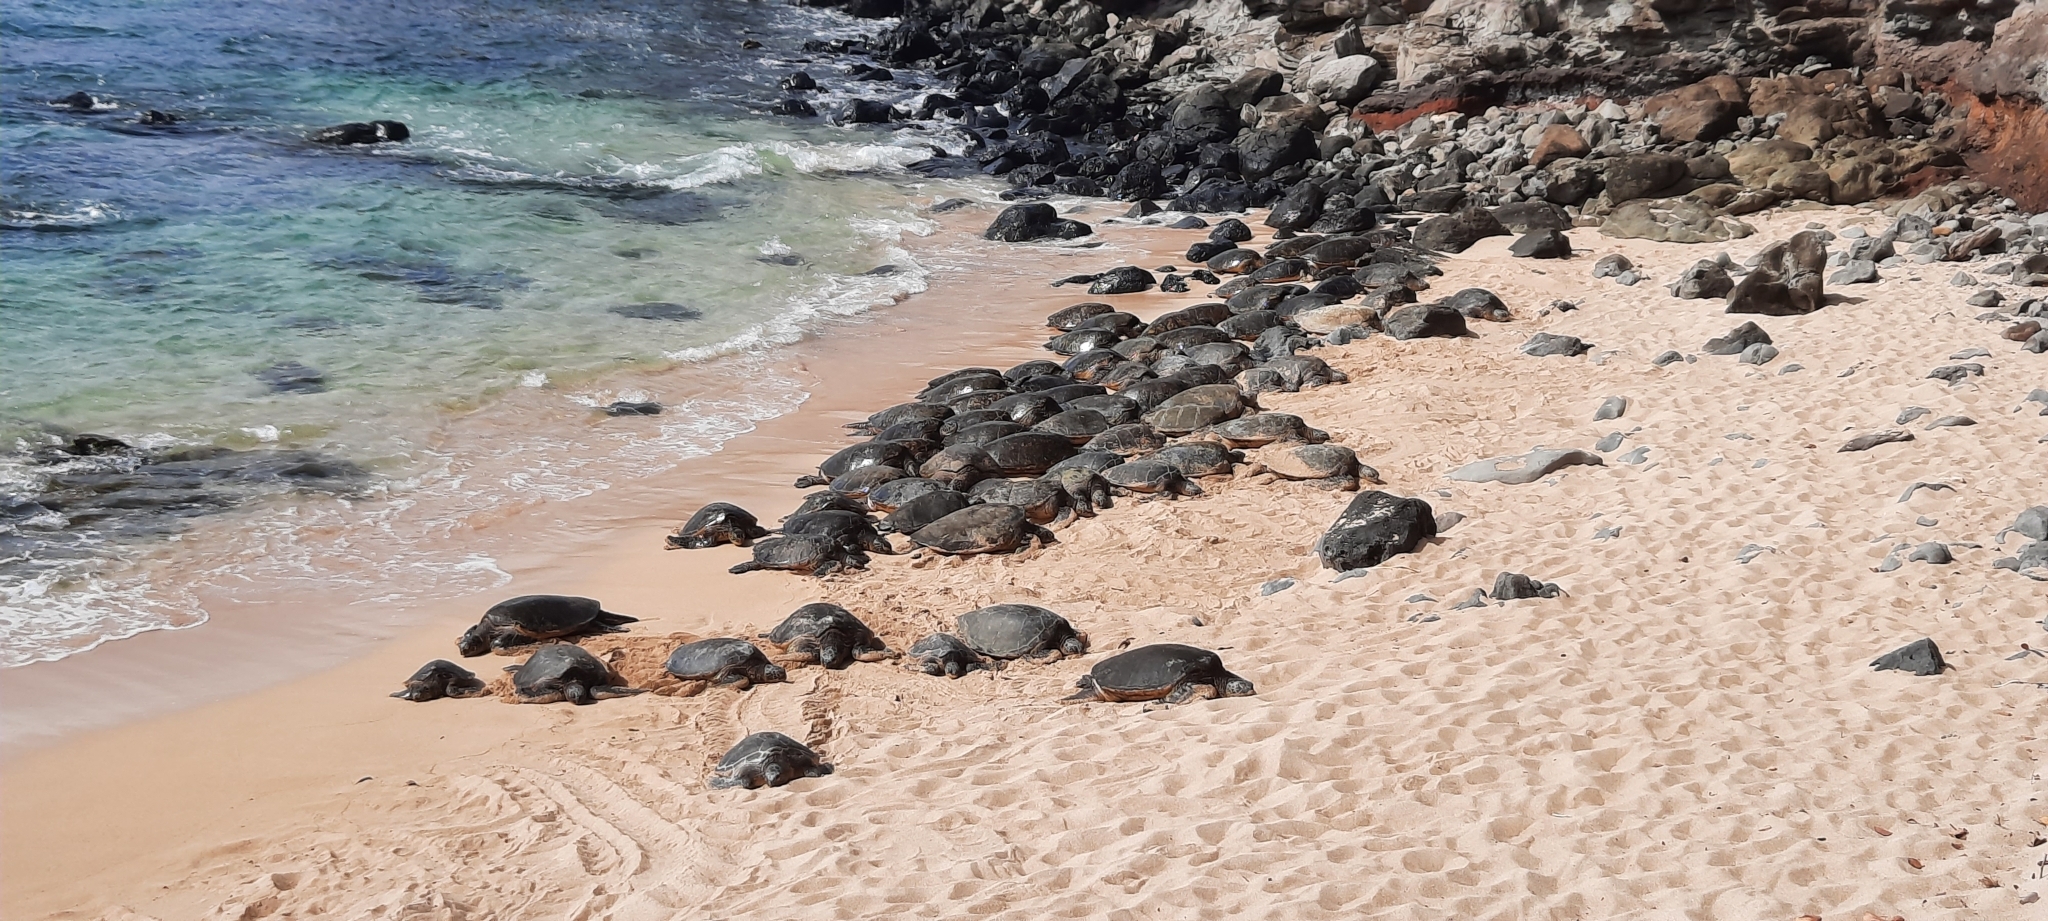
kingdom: Animalia
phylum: Chordata
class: Testudines
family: Cheloniidae
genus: Chelonia
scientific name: Chelonia mydas
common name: Green turtle
